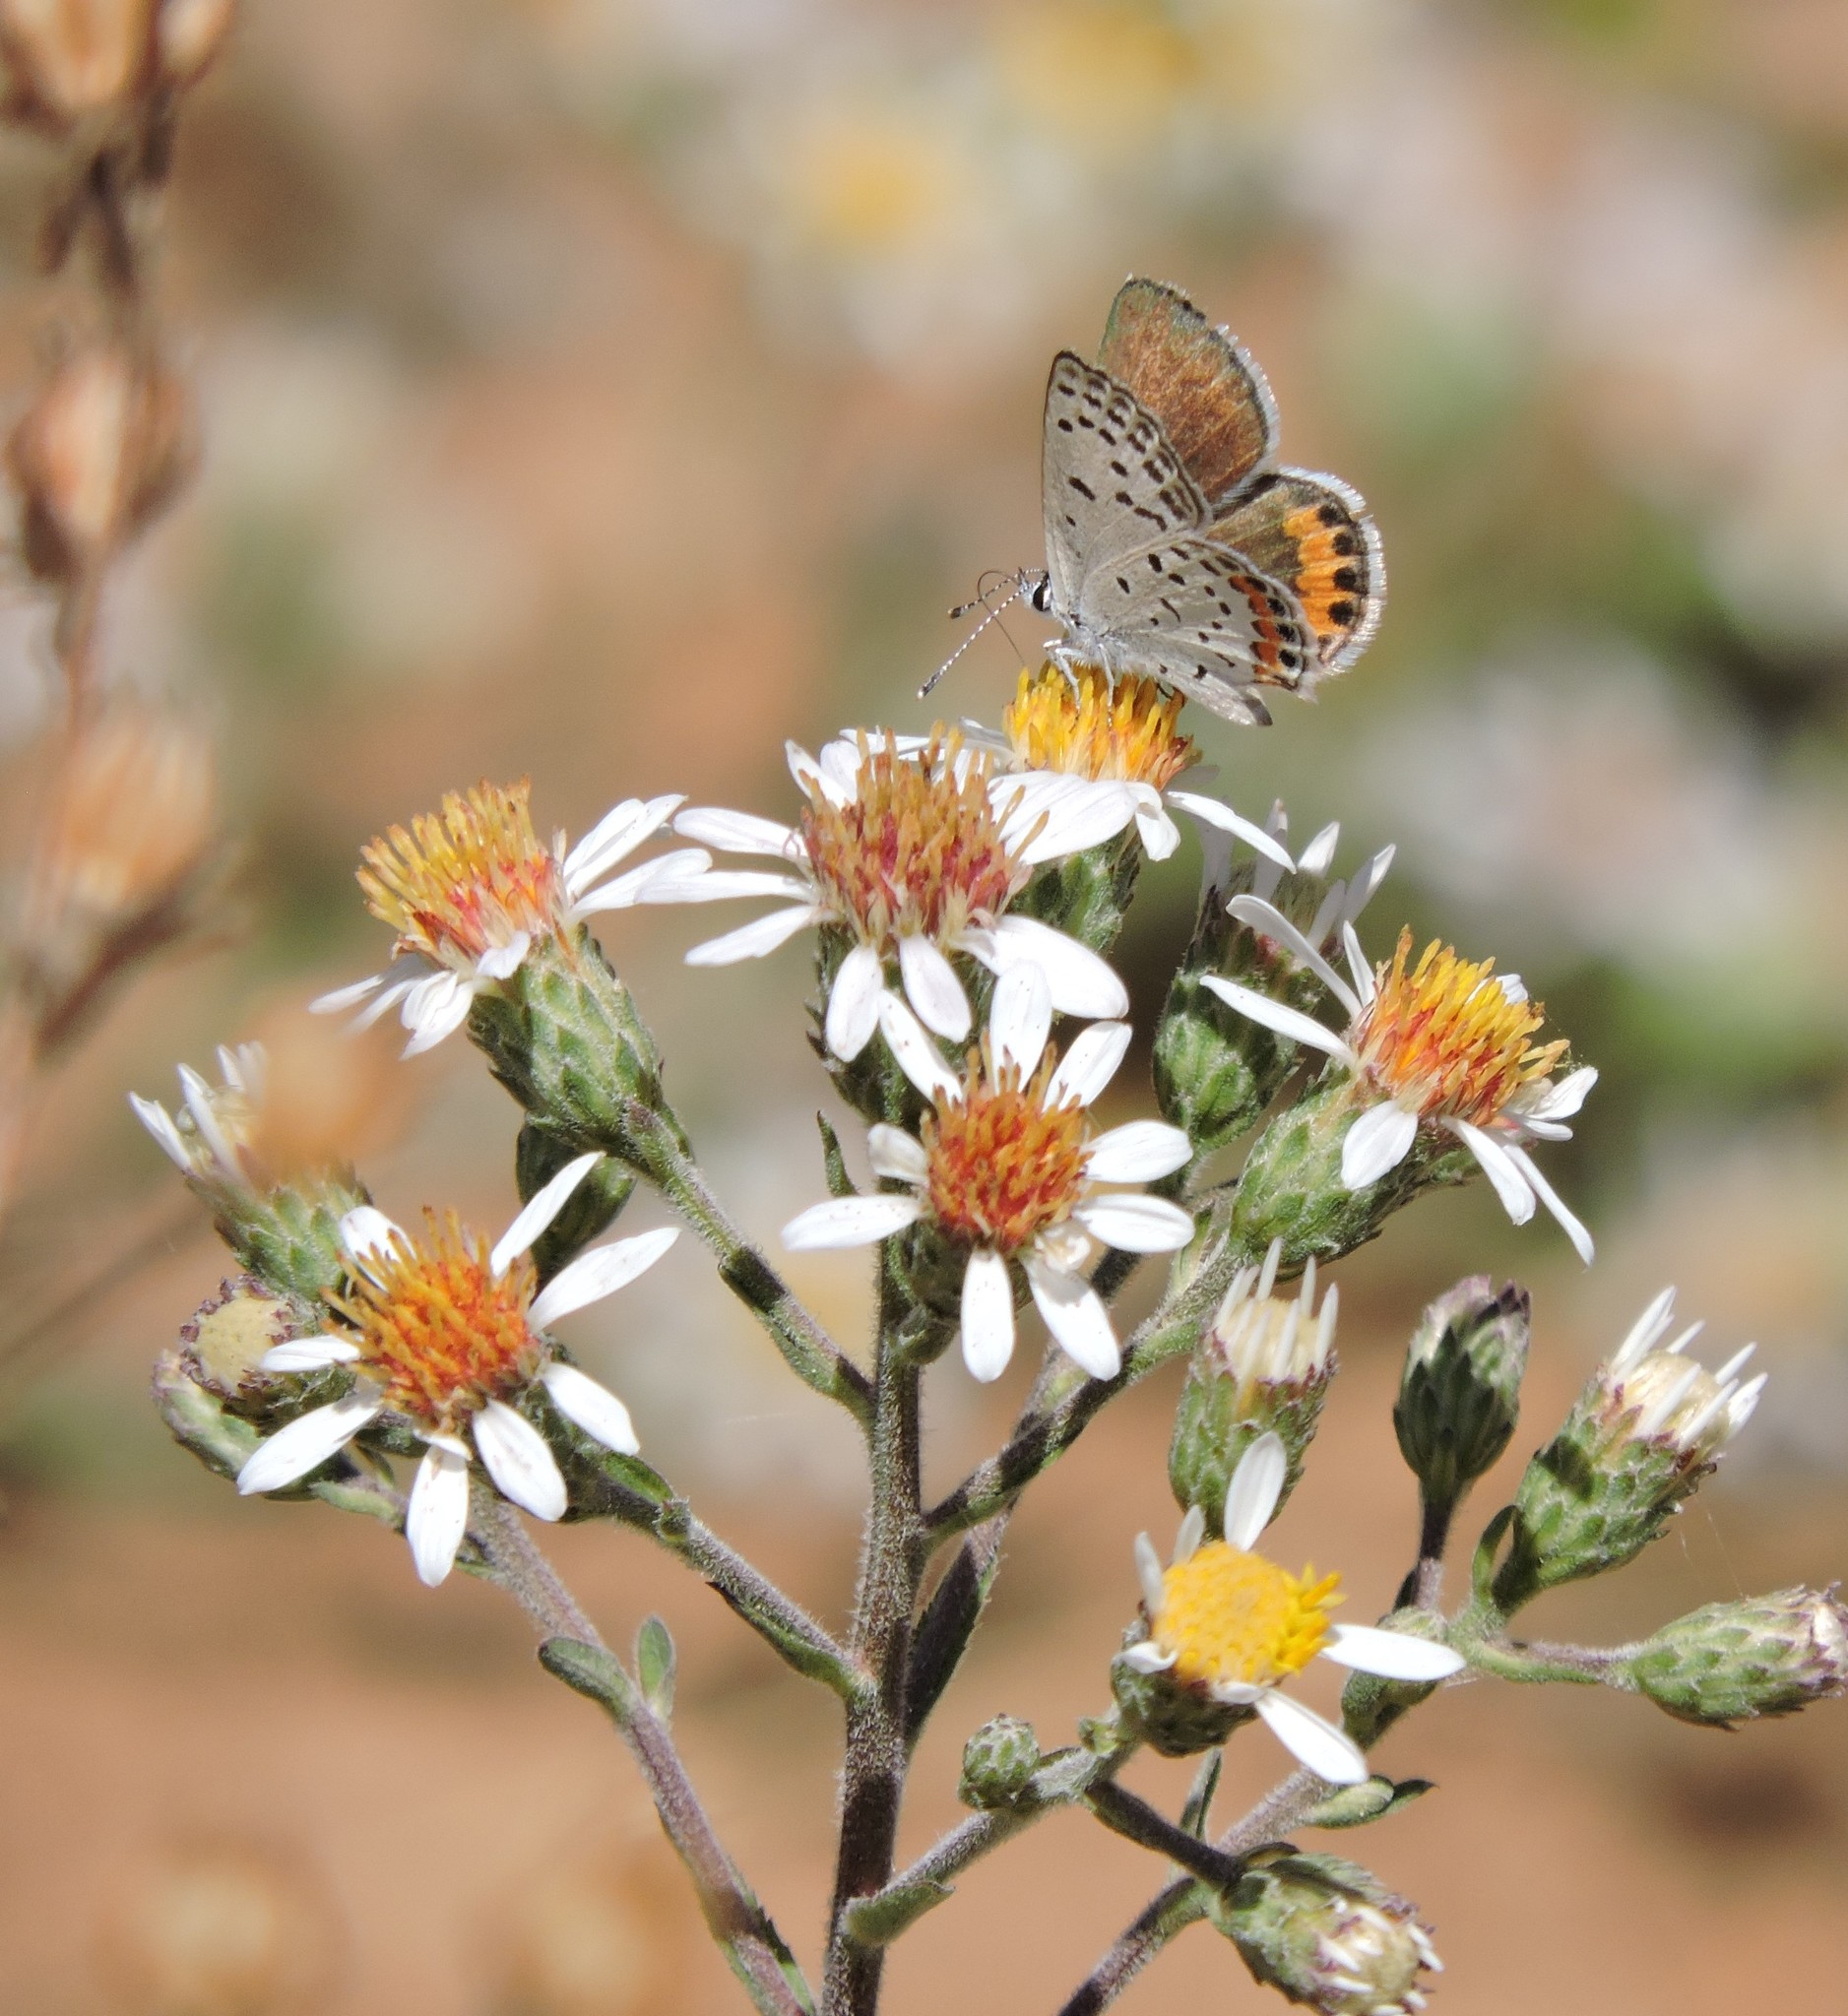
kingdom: Animalia
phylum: Arthropoda
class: Insecta
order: Lepidoptera
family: Lycaenidae
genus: Icaricia
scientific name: Icaricia acmon
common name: Acmon blue
